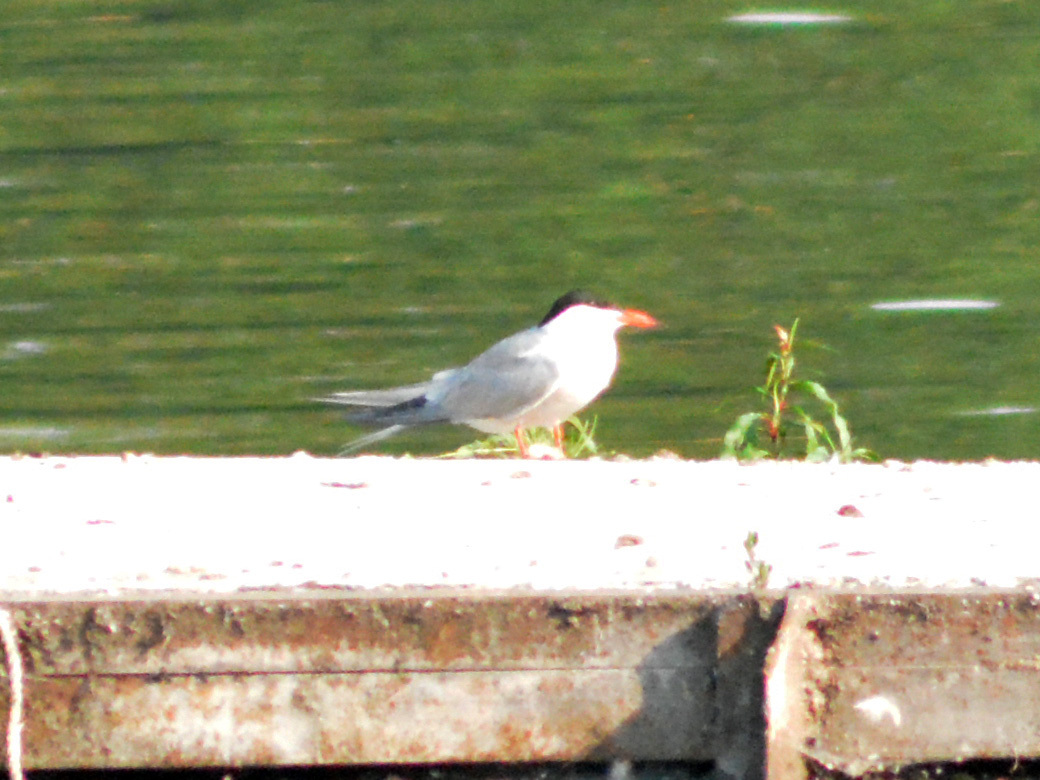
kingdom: Animalia
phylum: Chordata
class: Aves
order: Charadriiformes
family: Laridae
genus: Sterna
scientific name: Sterna hirundo
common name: Common tern
